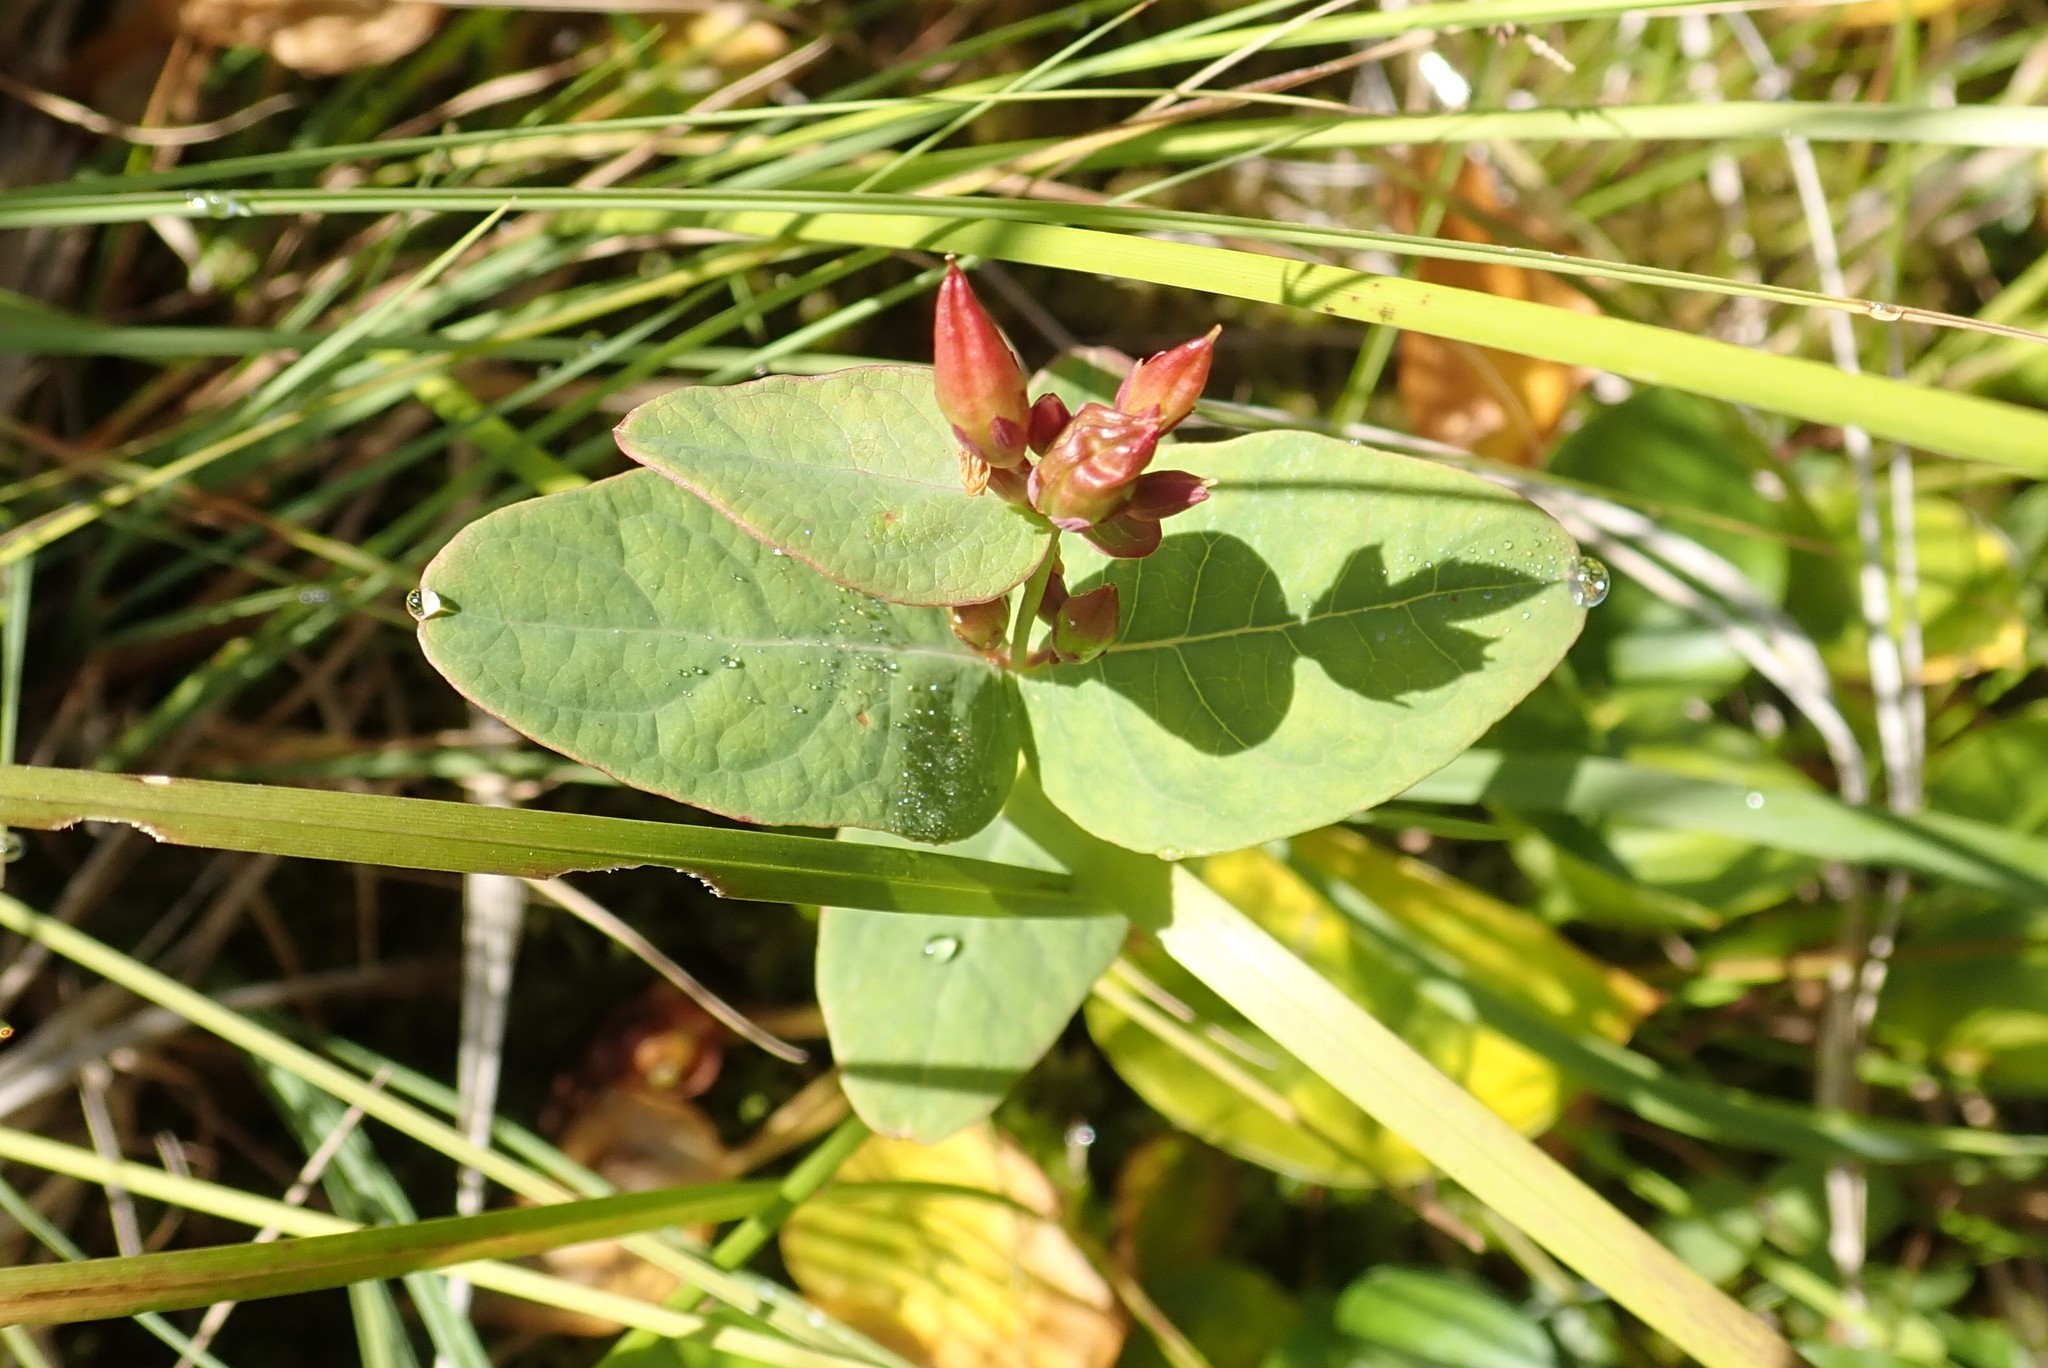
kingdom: Plantae
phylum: Tracheophyta
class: Magnoliopsida
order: Malpighiales
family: Hypericaceae
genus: Triadenum
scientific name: Triadenum fraseri
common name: Fraser's marsh st. johnswort
